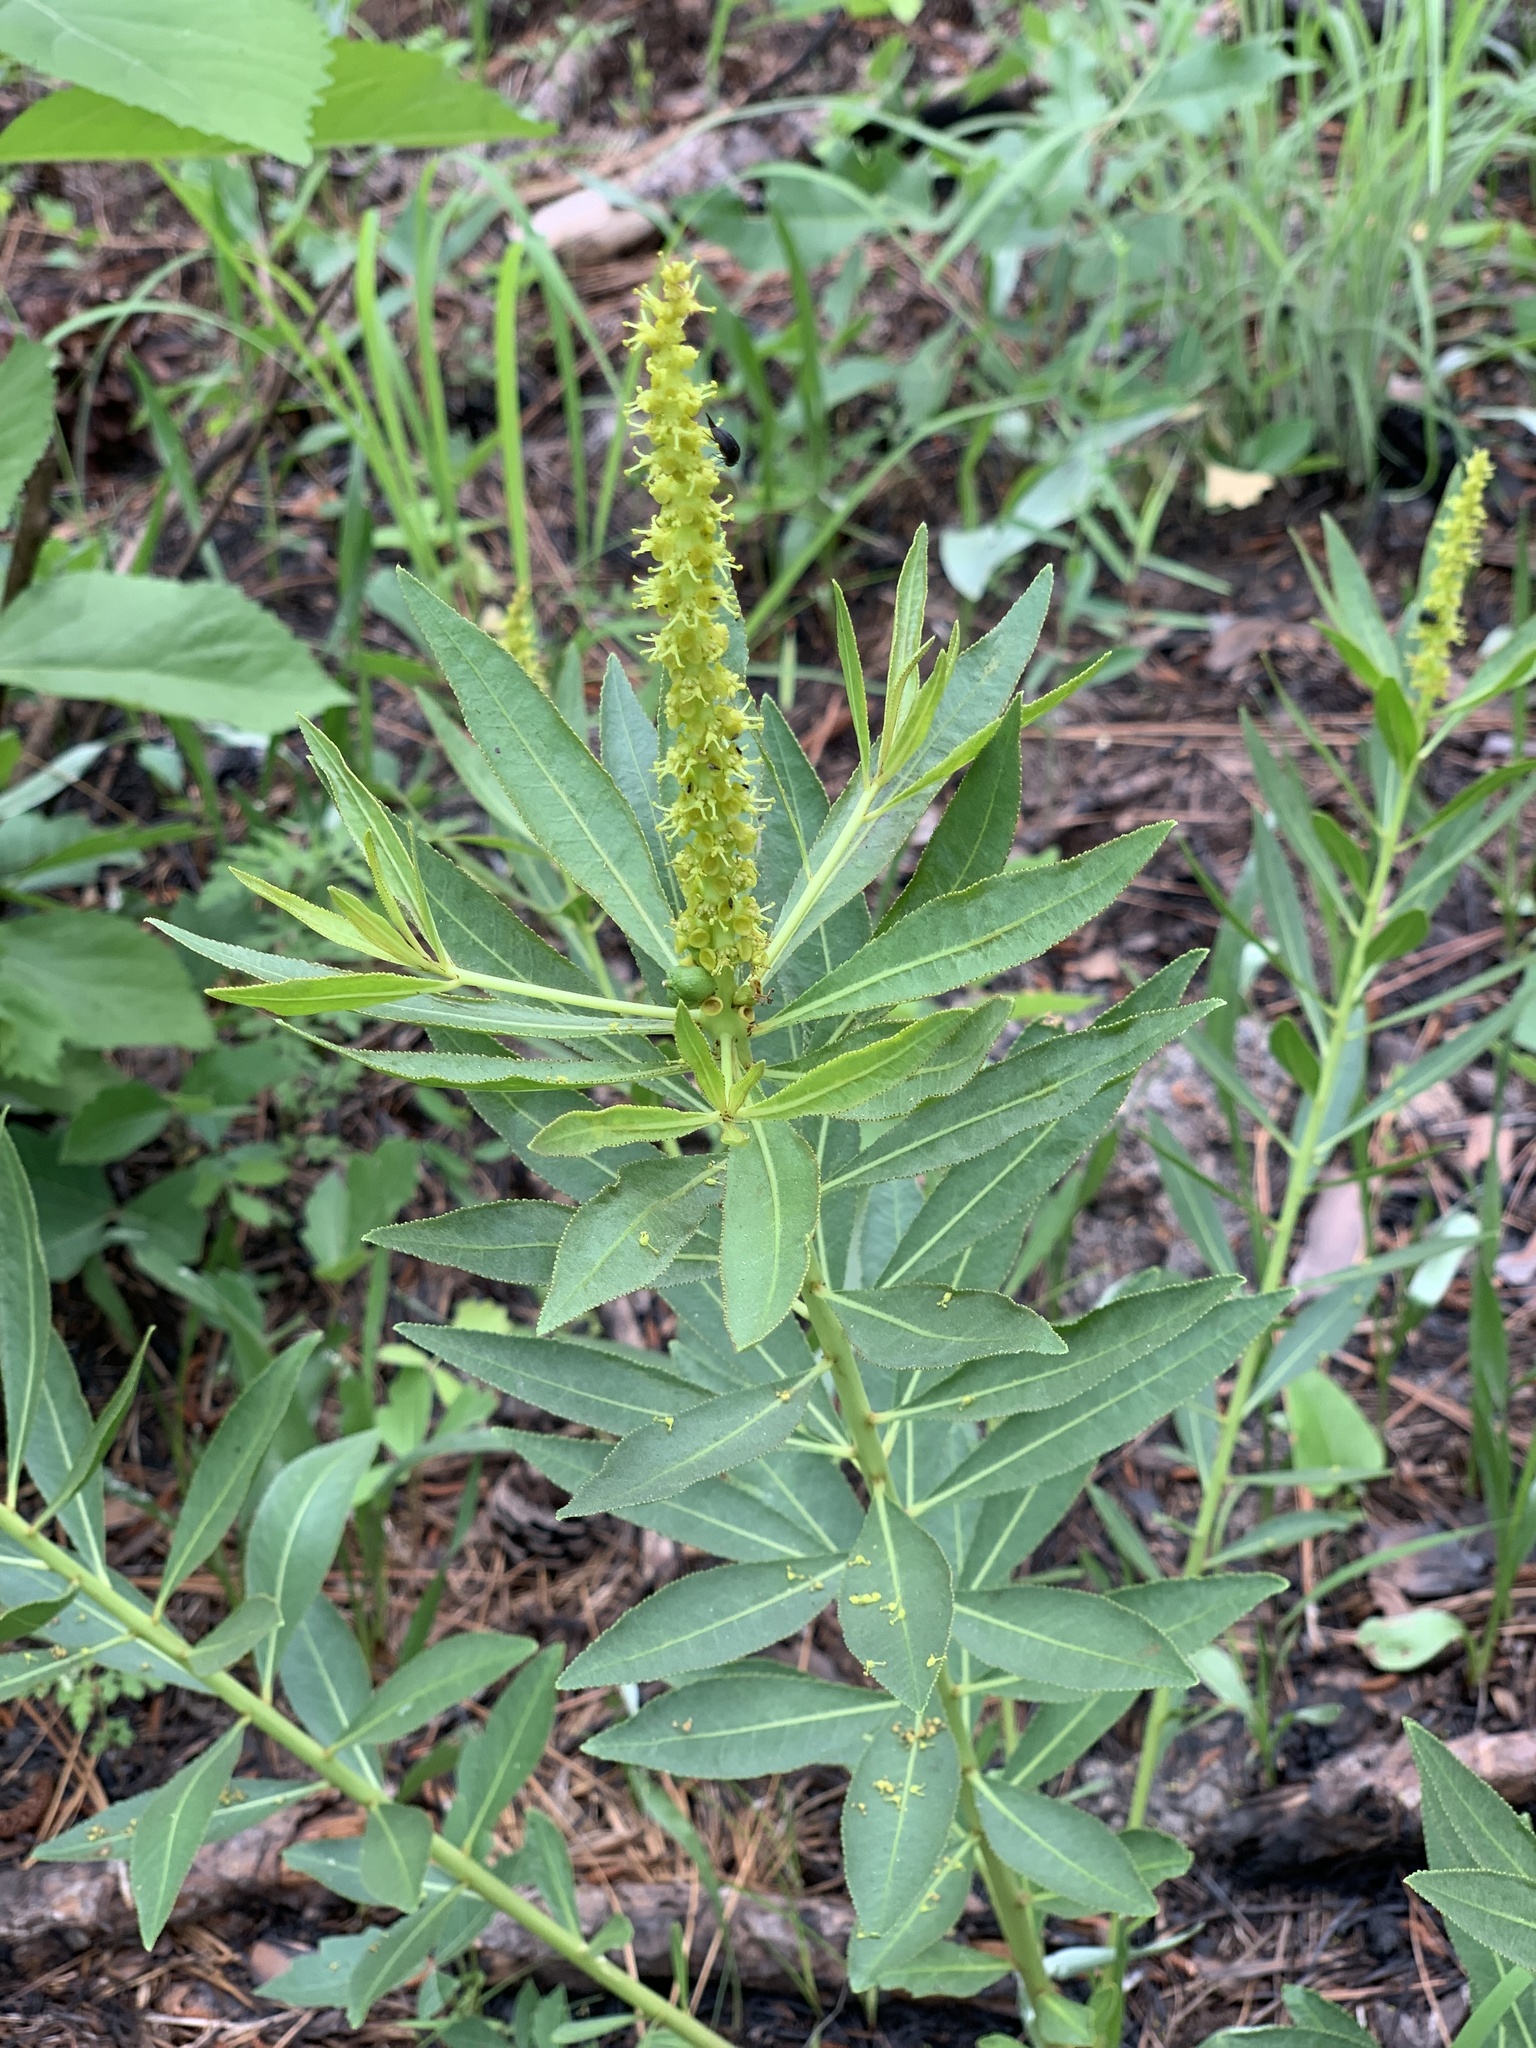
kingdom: Plantae
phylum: Tracheophyta
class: Magnoliopsida
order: Malpighiales
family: Euphorbiaceae
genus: Stillingia
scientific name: Stillingia sylvatica
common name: Queen's-delight
